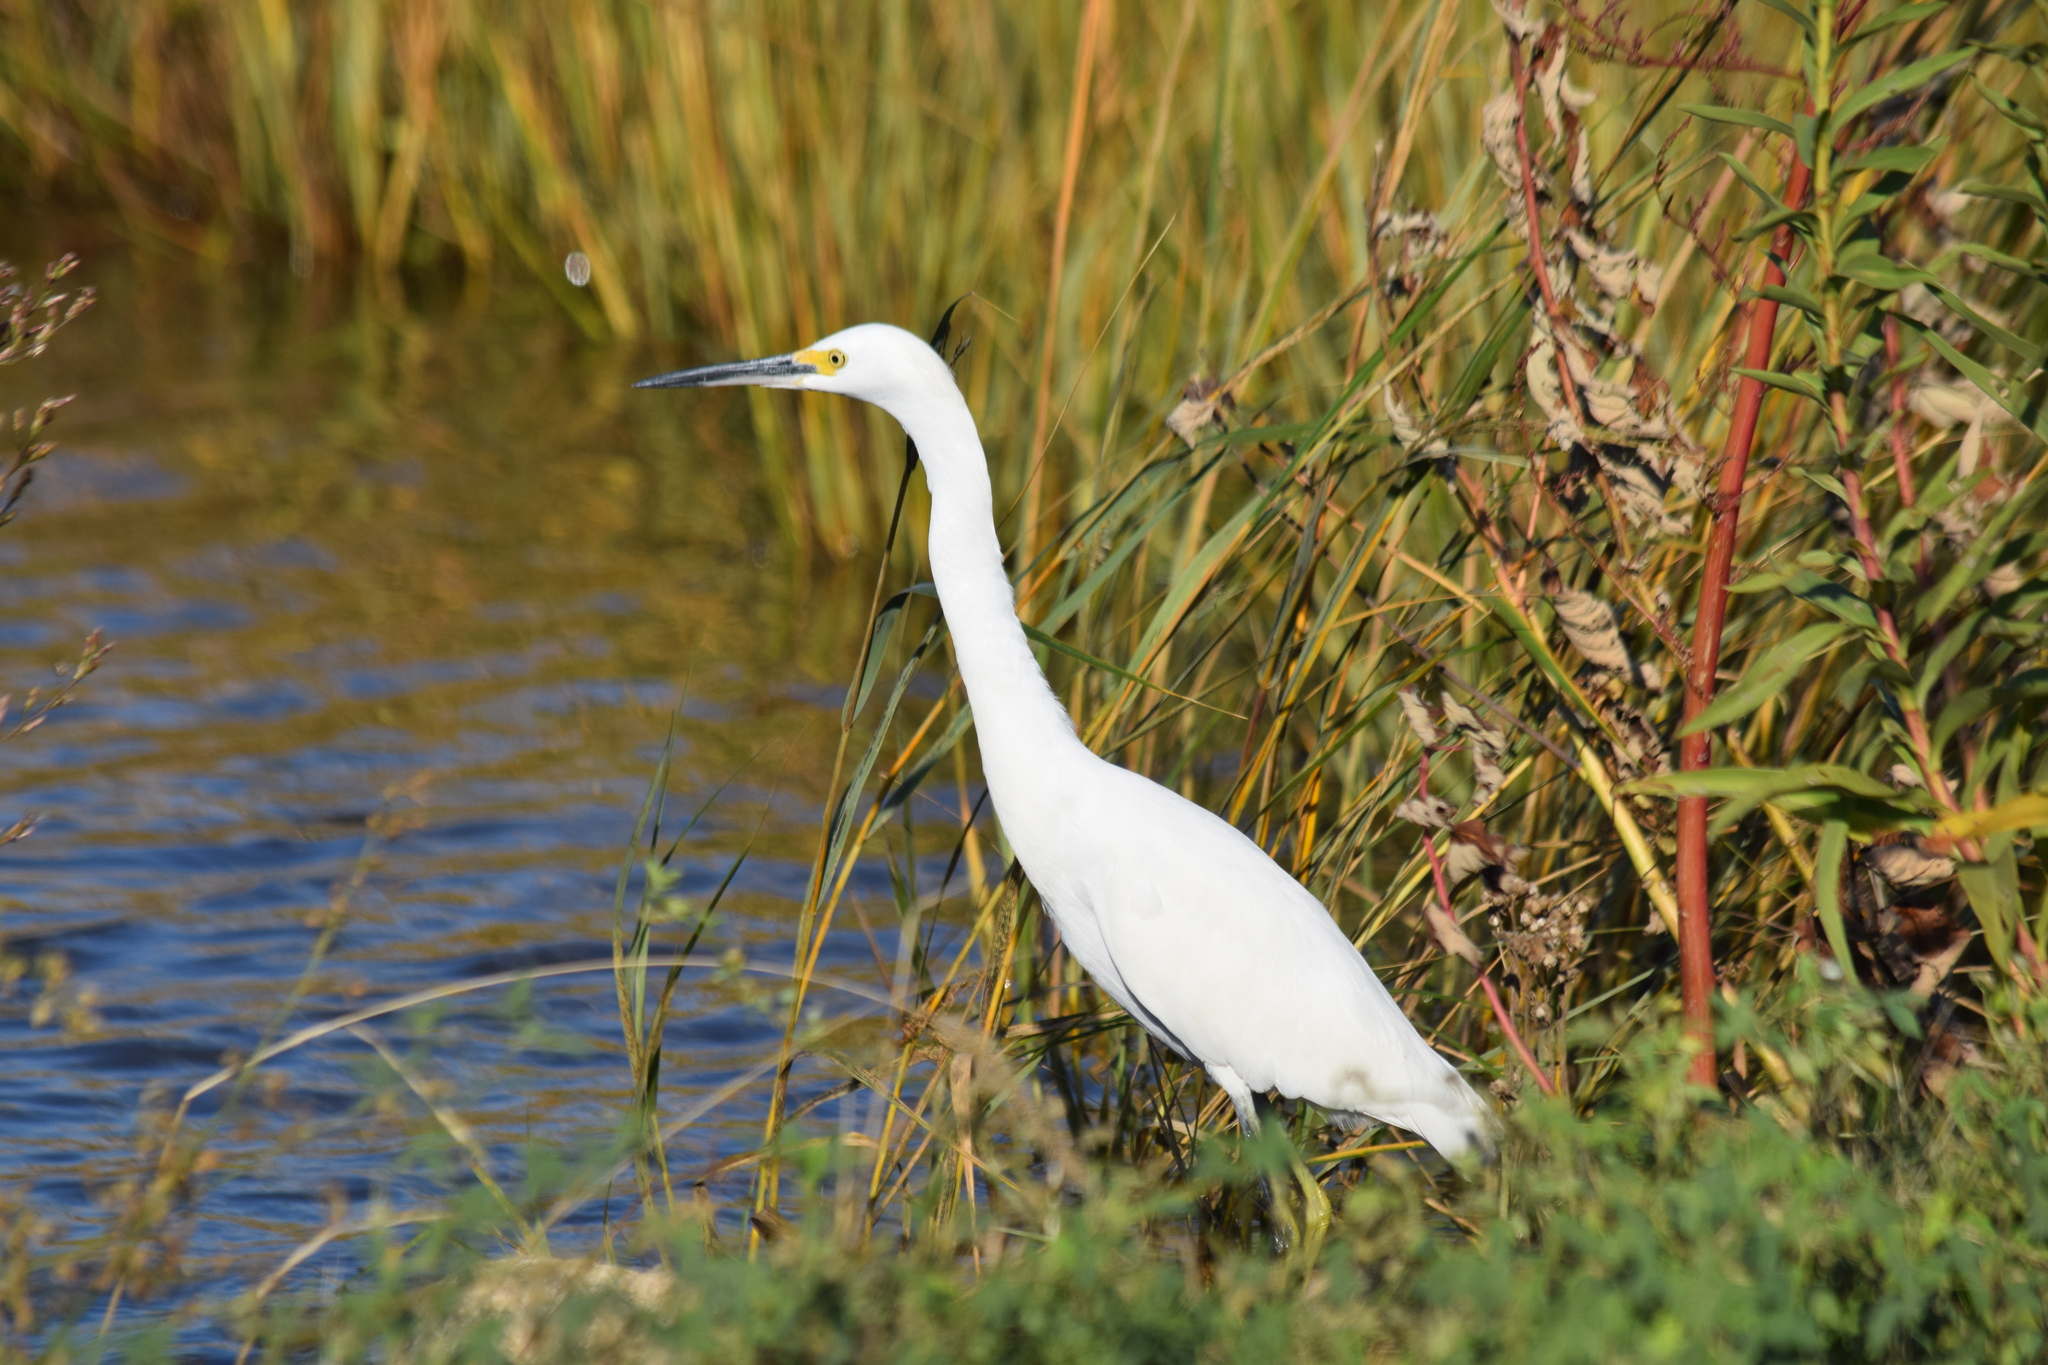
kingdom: Animalia
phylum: Chordata
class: Aves
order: Pelecaniformes
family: Ardeidae
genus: Egretta
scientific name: Egretta thula
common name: Snowy egret
